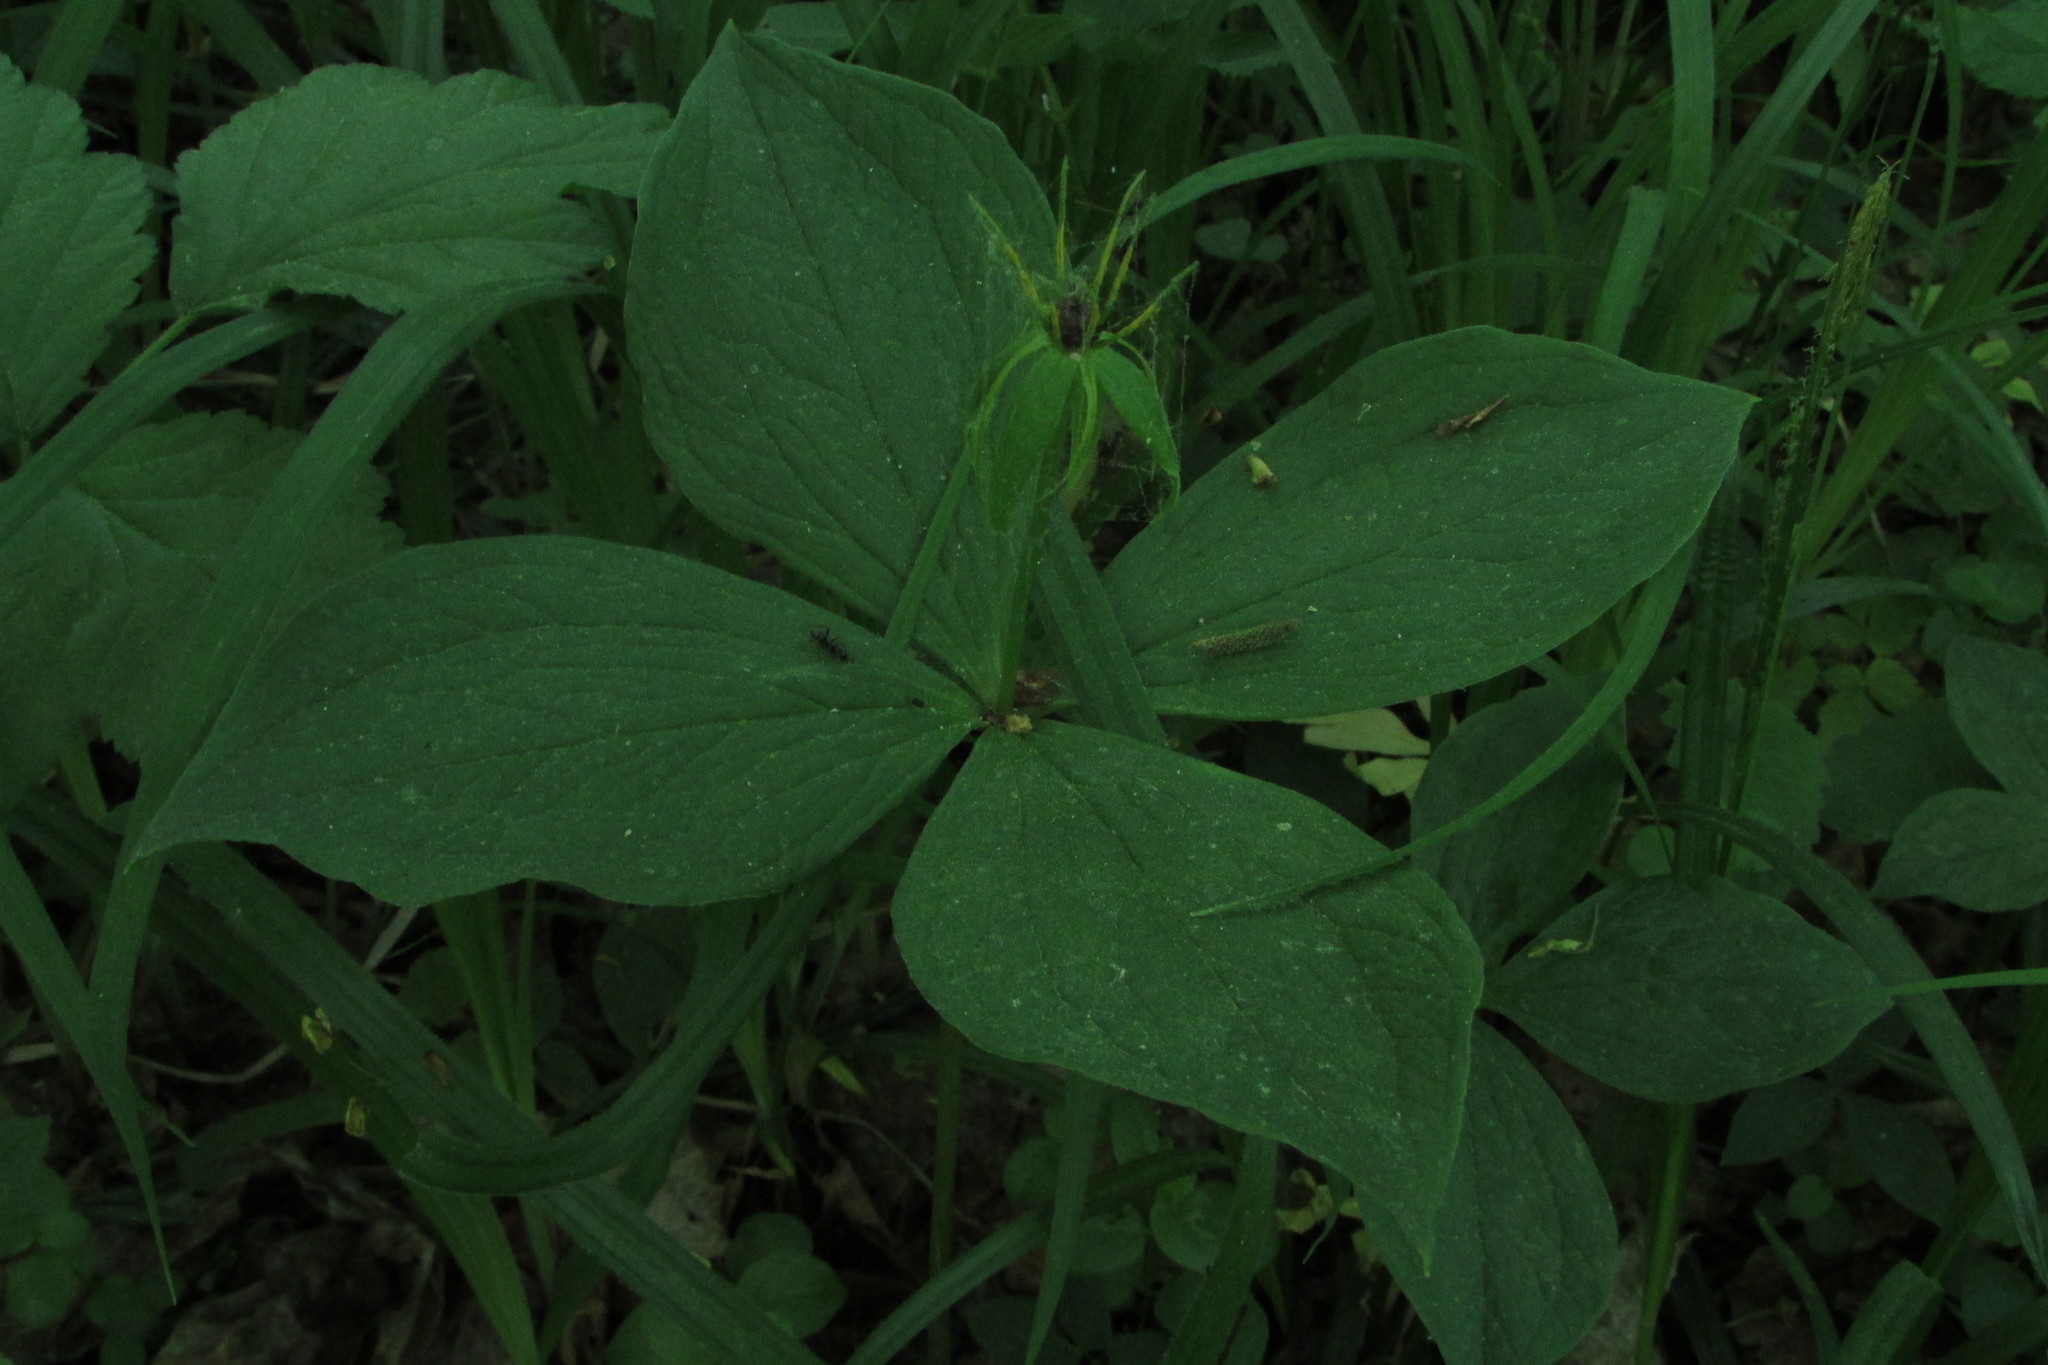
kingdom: Plantae
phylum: Tracheophyta
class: Liliopsida
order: Liliales
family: Melanthiaceae
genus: Paris
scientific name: Paris quadrifolia
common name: Herb-paris
